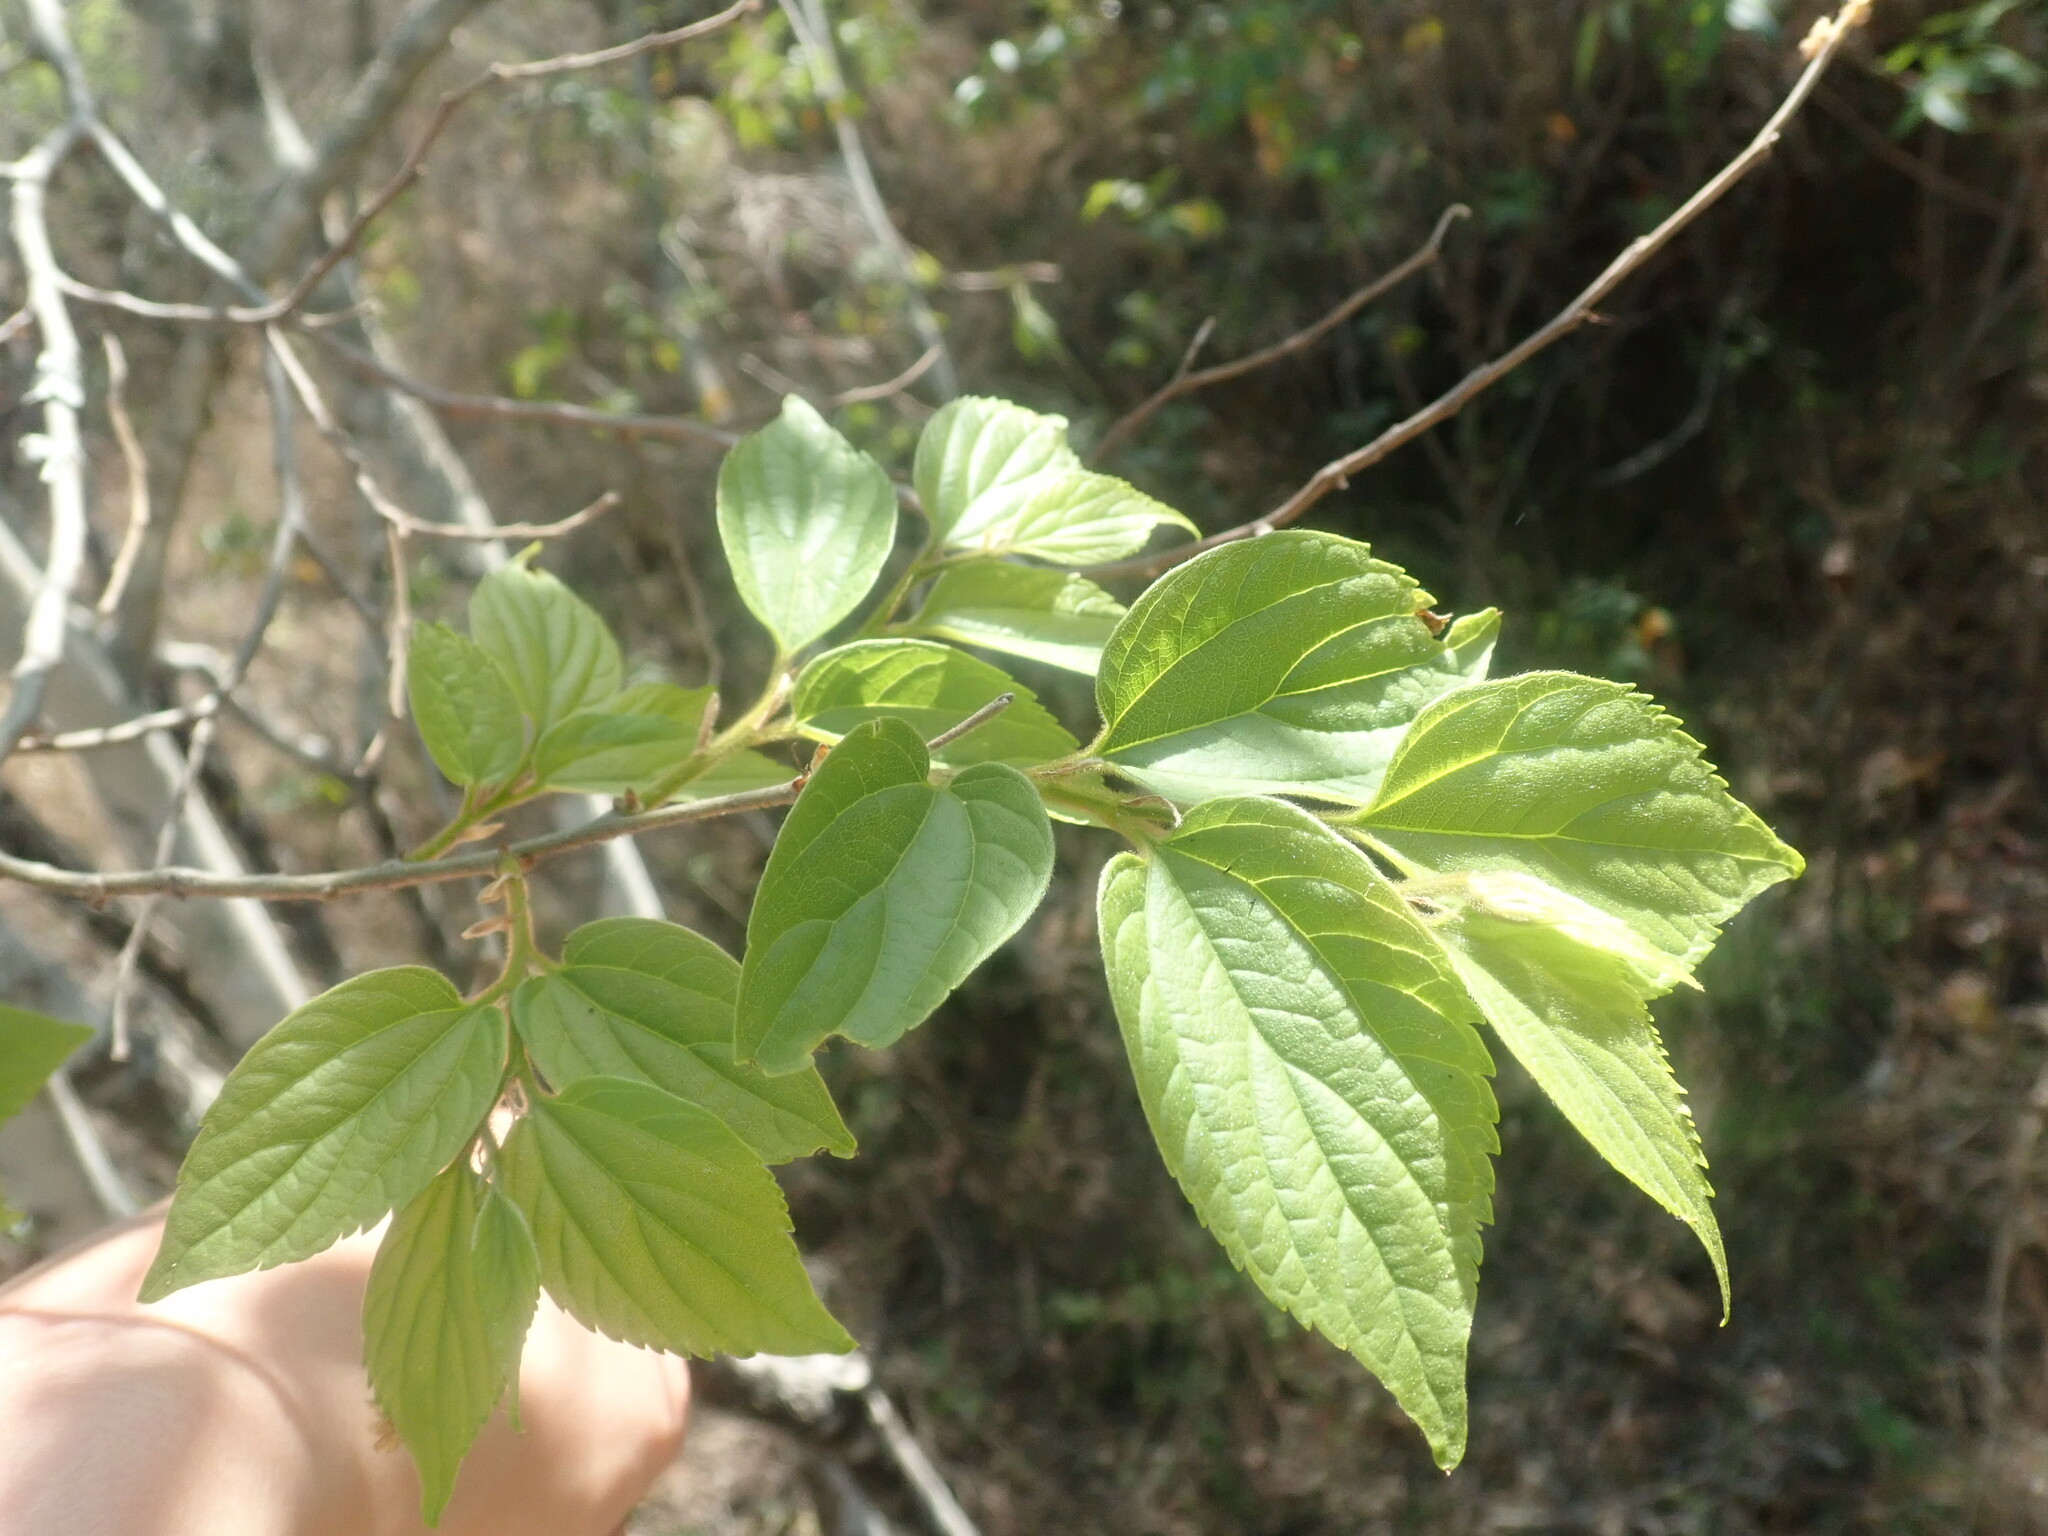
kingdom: Plantae
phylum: Tracheophyta
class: Magnoliopsida
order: Rosales
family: Cannabaceae
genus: Celtis
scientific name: Celtis africana
